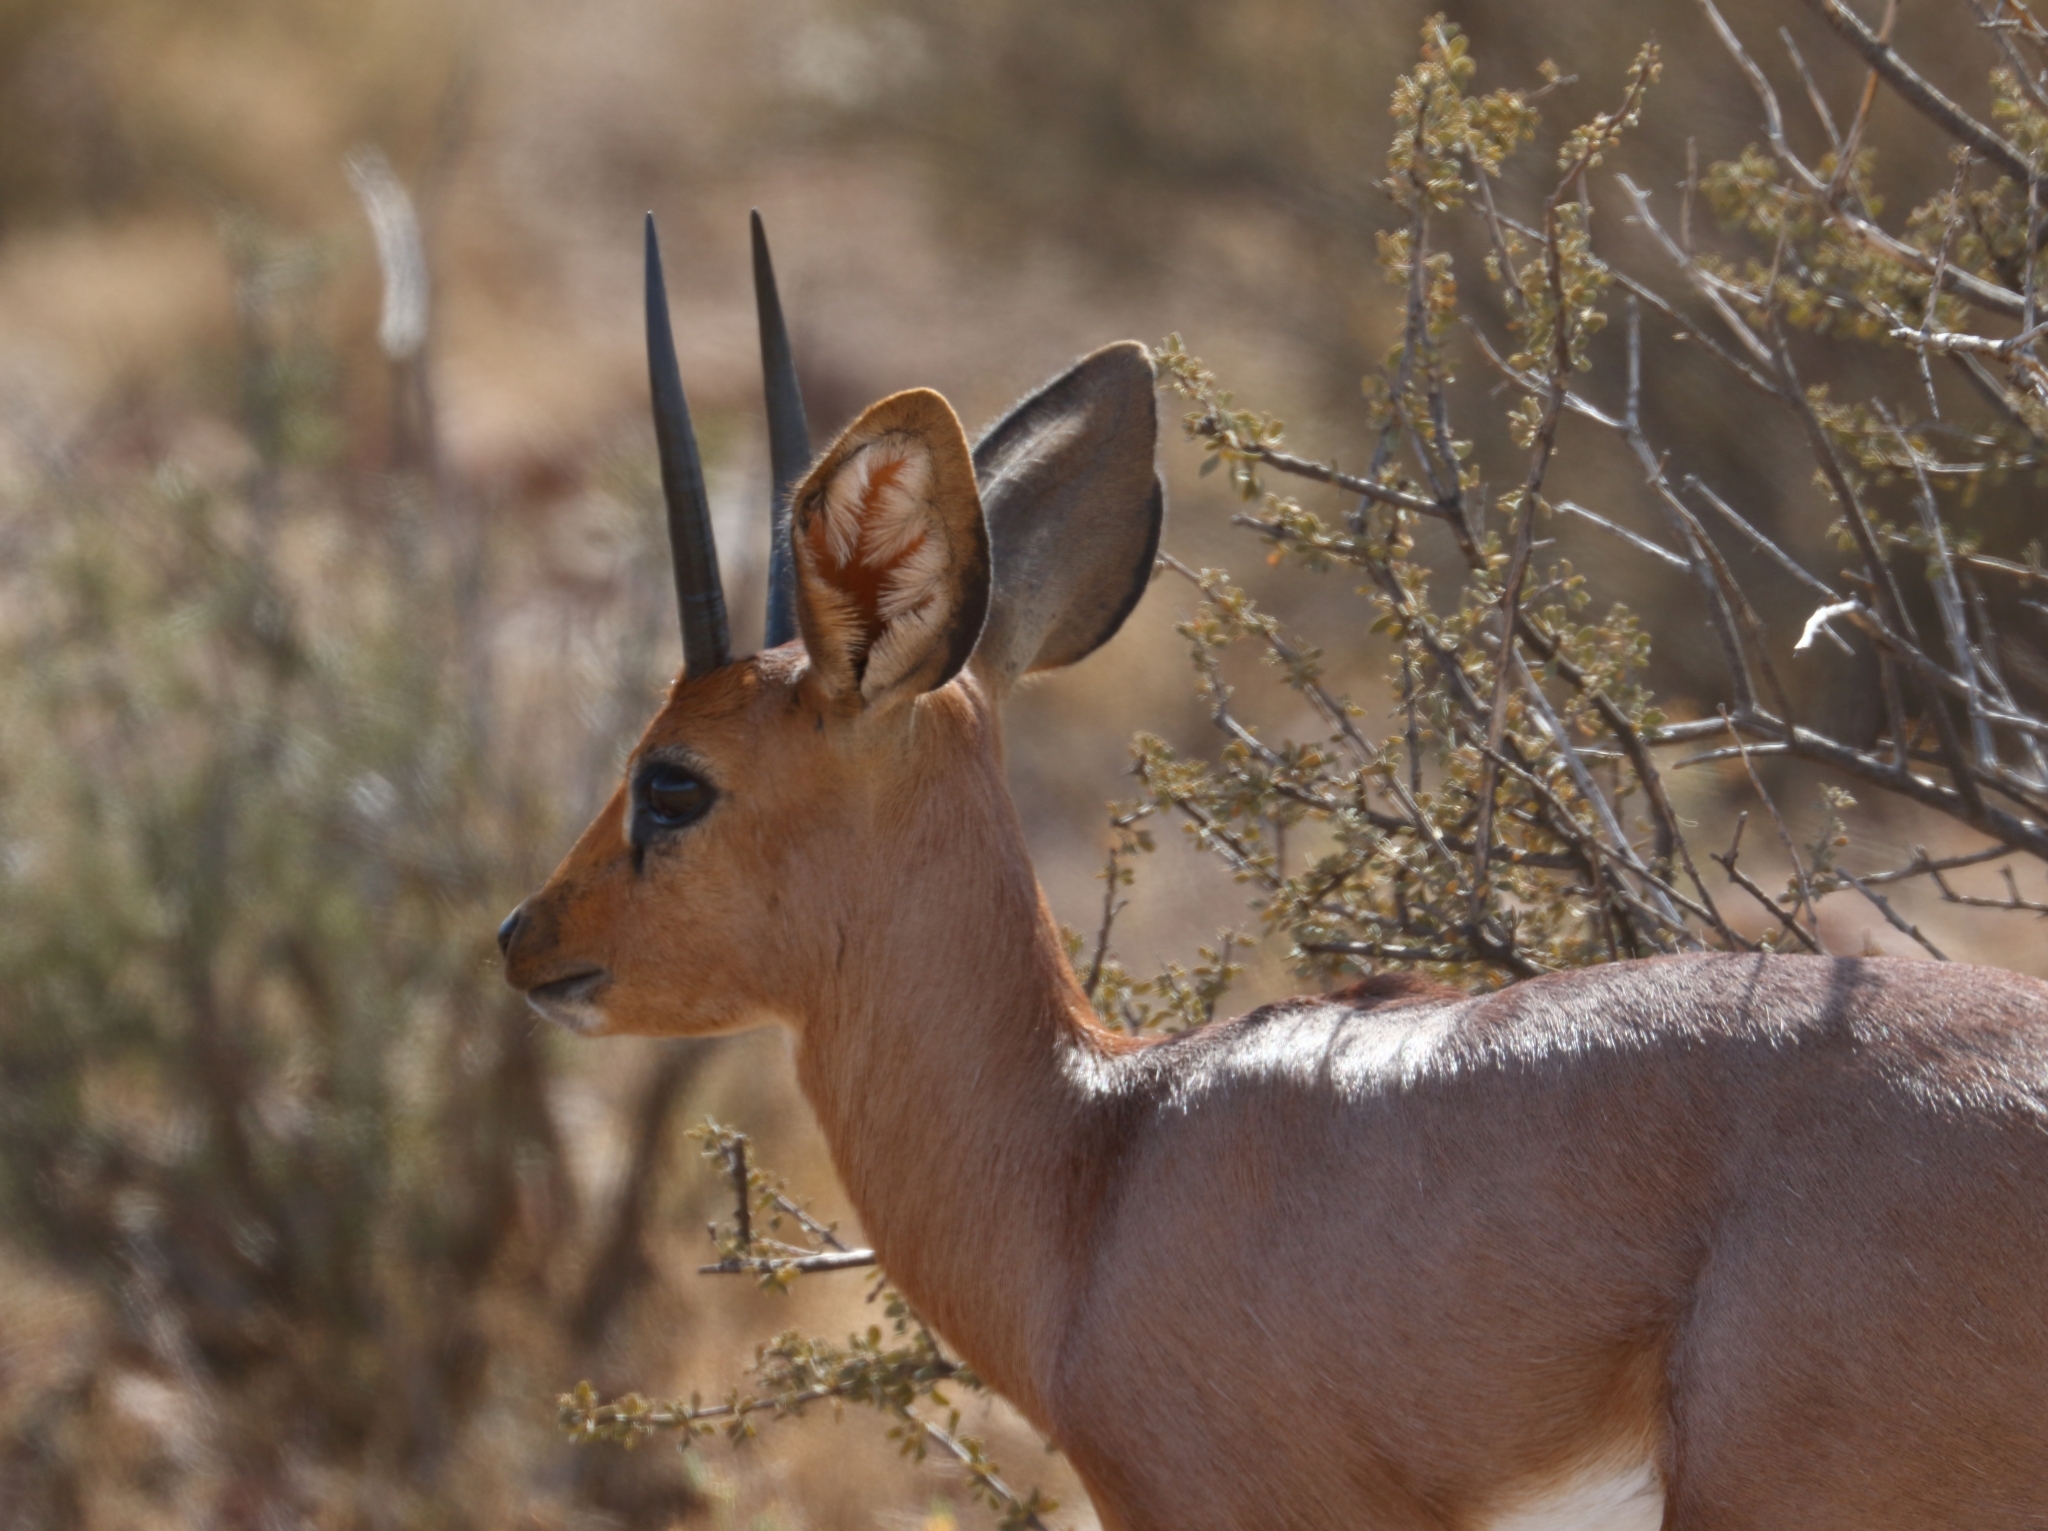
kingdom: Animalia
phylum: Chordata
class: Mammalia
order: Artiodactyla
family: Bovidae
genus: Raphicerus
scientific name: Raphicerus campestris
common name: Steenbok
